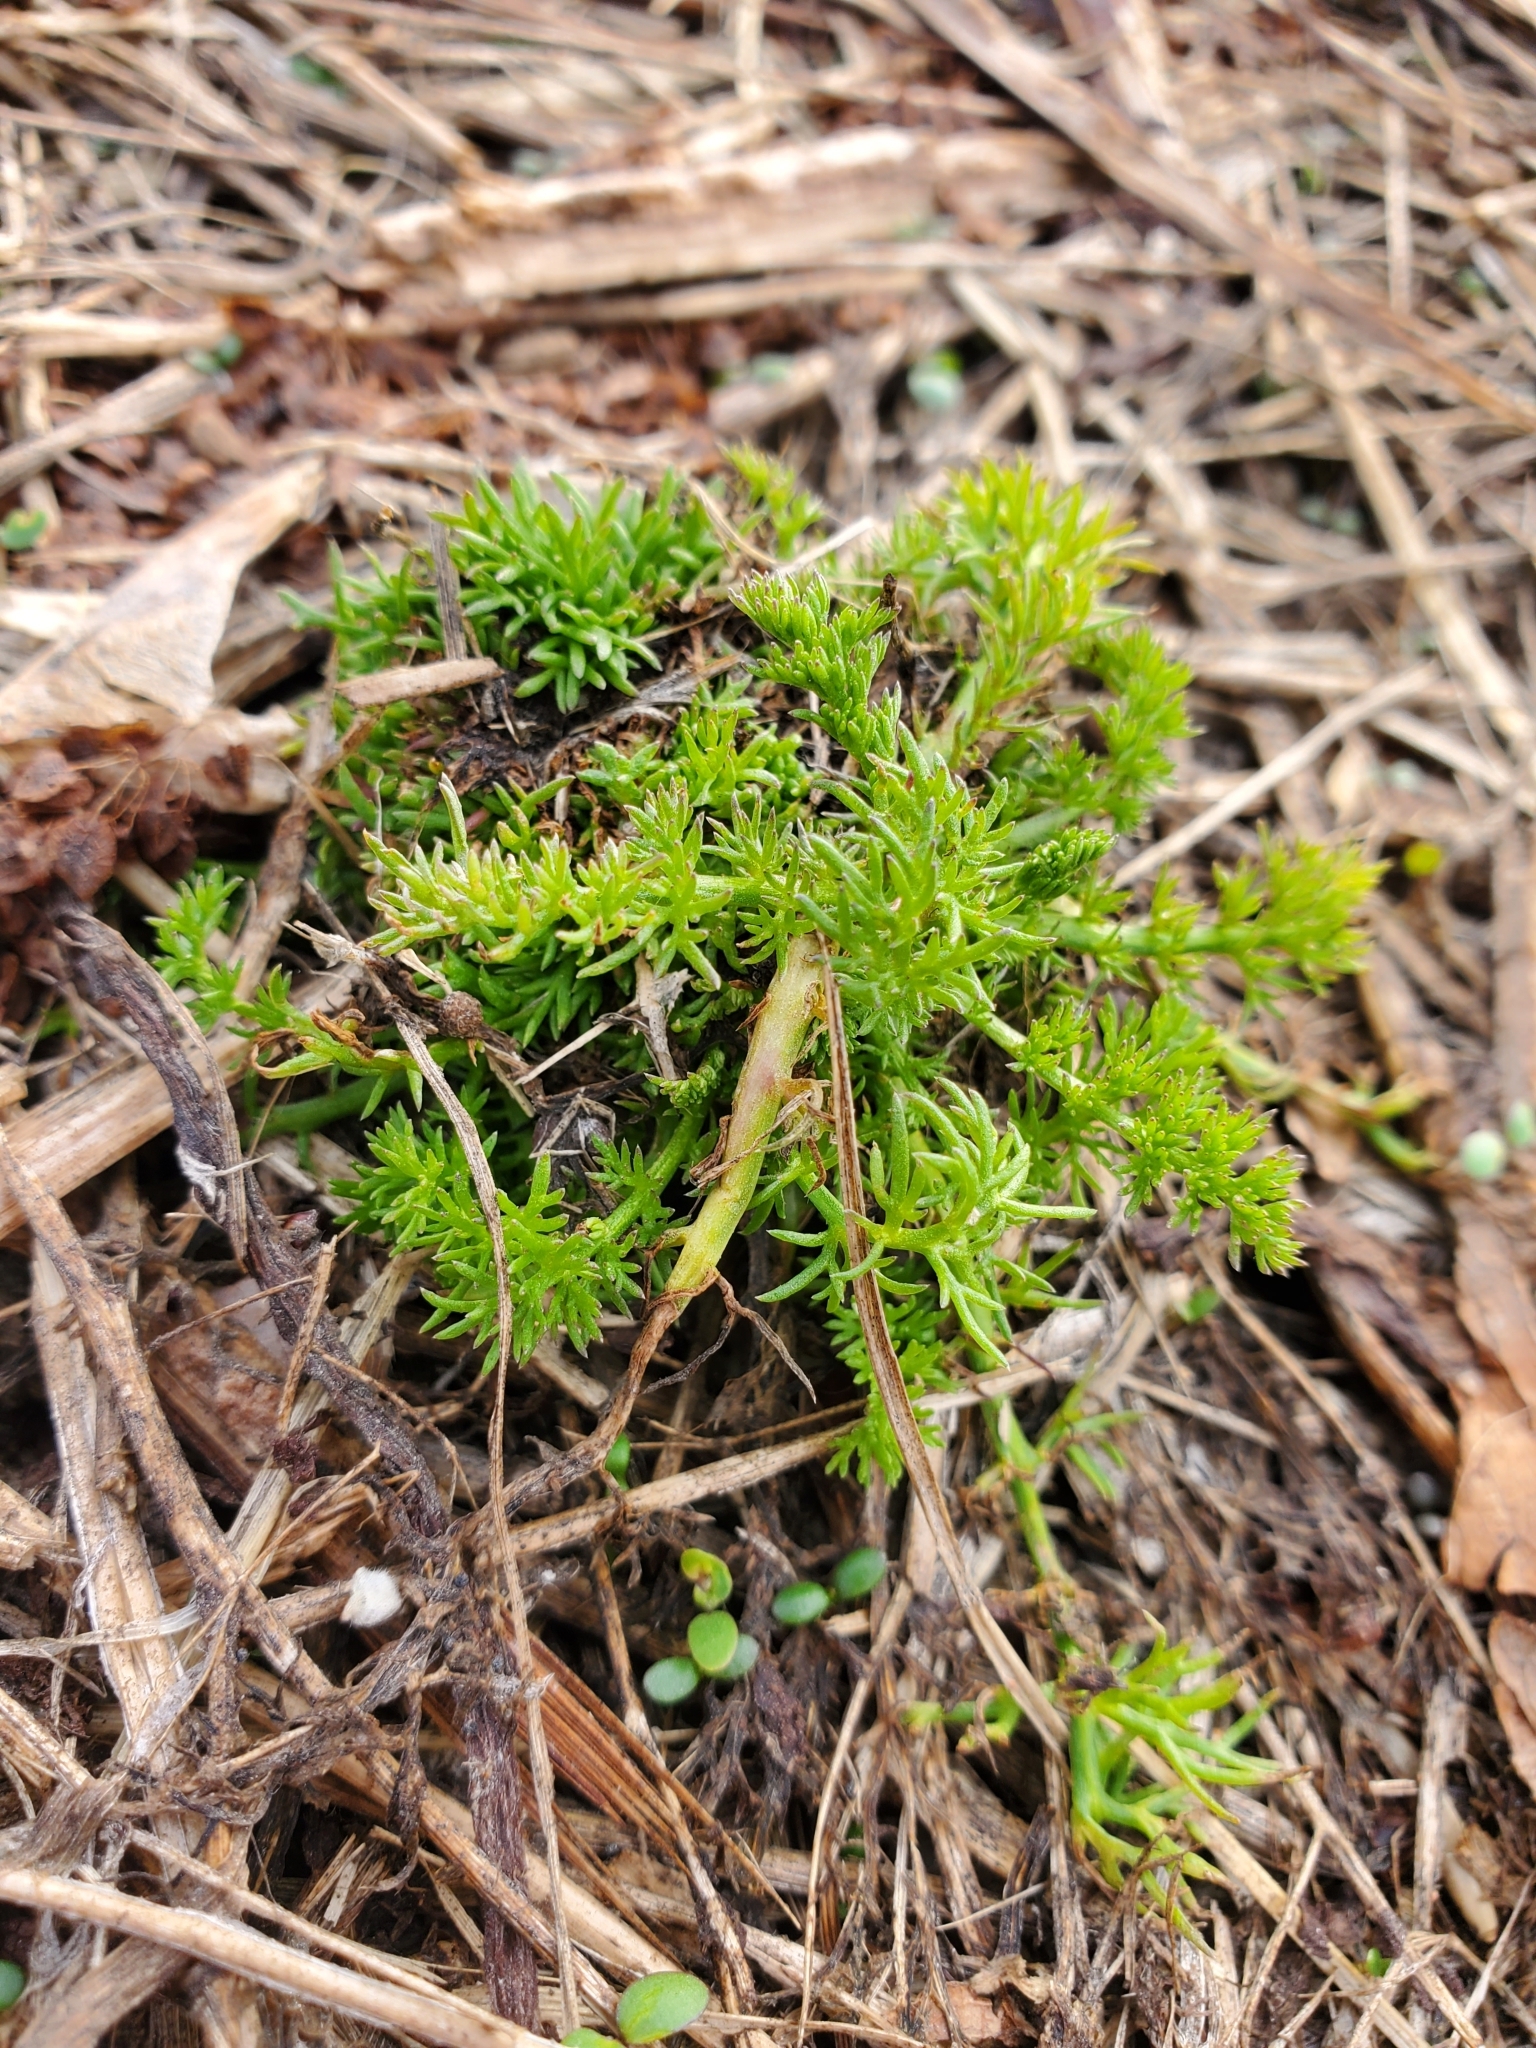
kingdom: Plantae
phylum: Tracheophyta
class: Magnoliopsida
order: Asterales
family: Asteraceae
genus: Tripleurospermum
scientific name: Tripleurospermum inodorum
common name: Scentless mayweed
